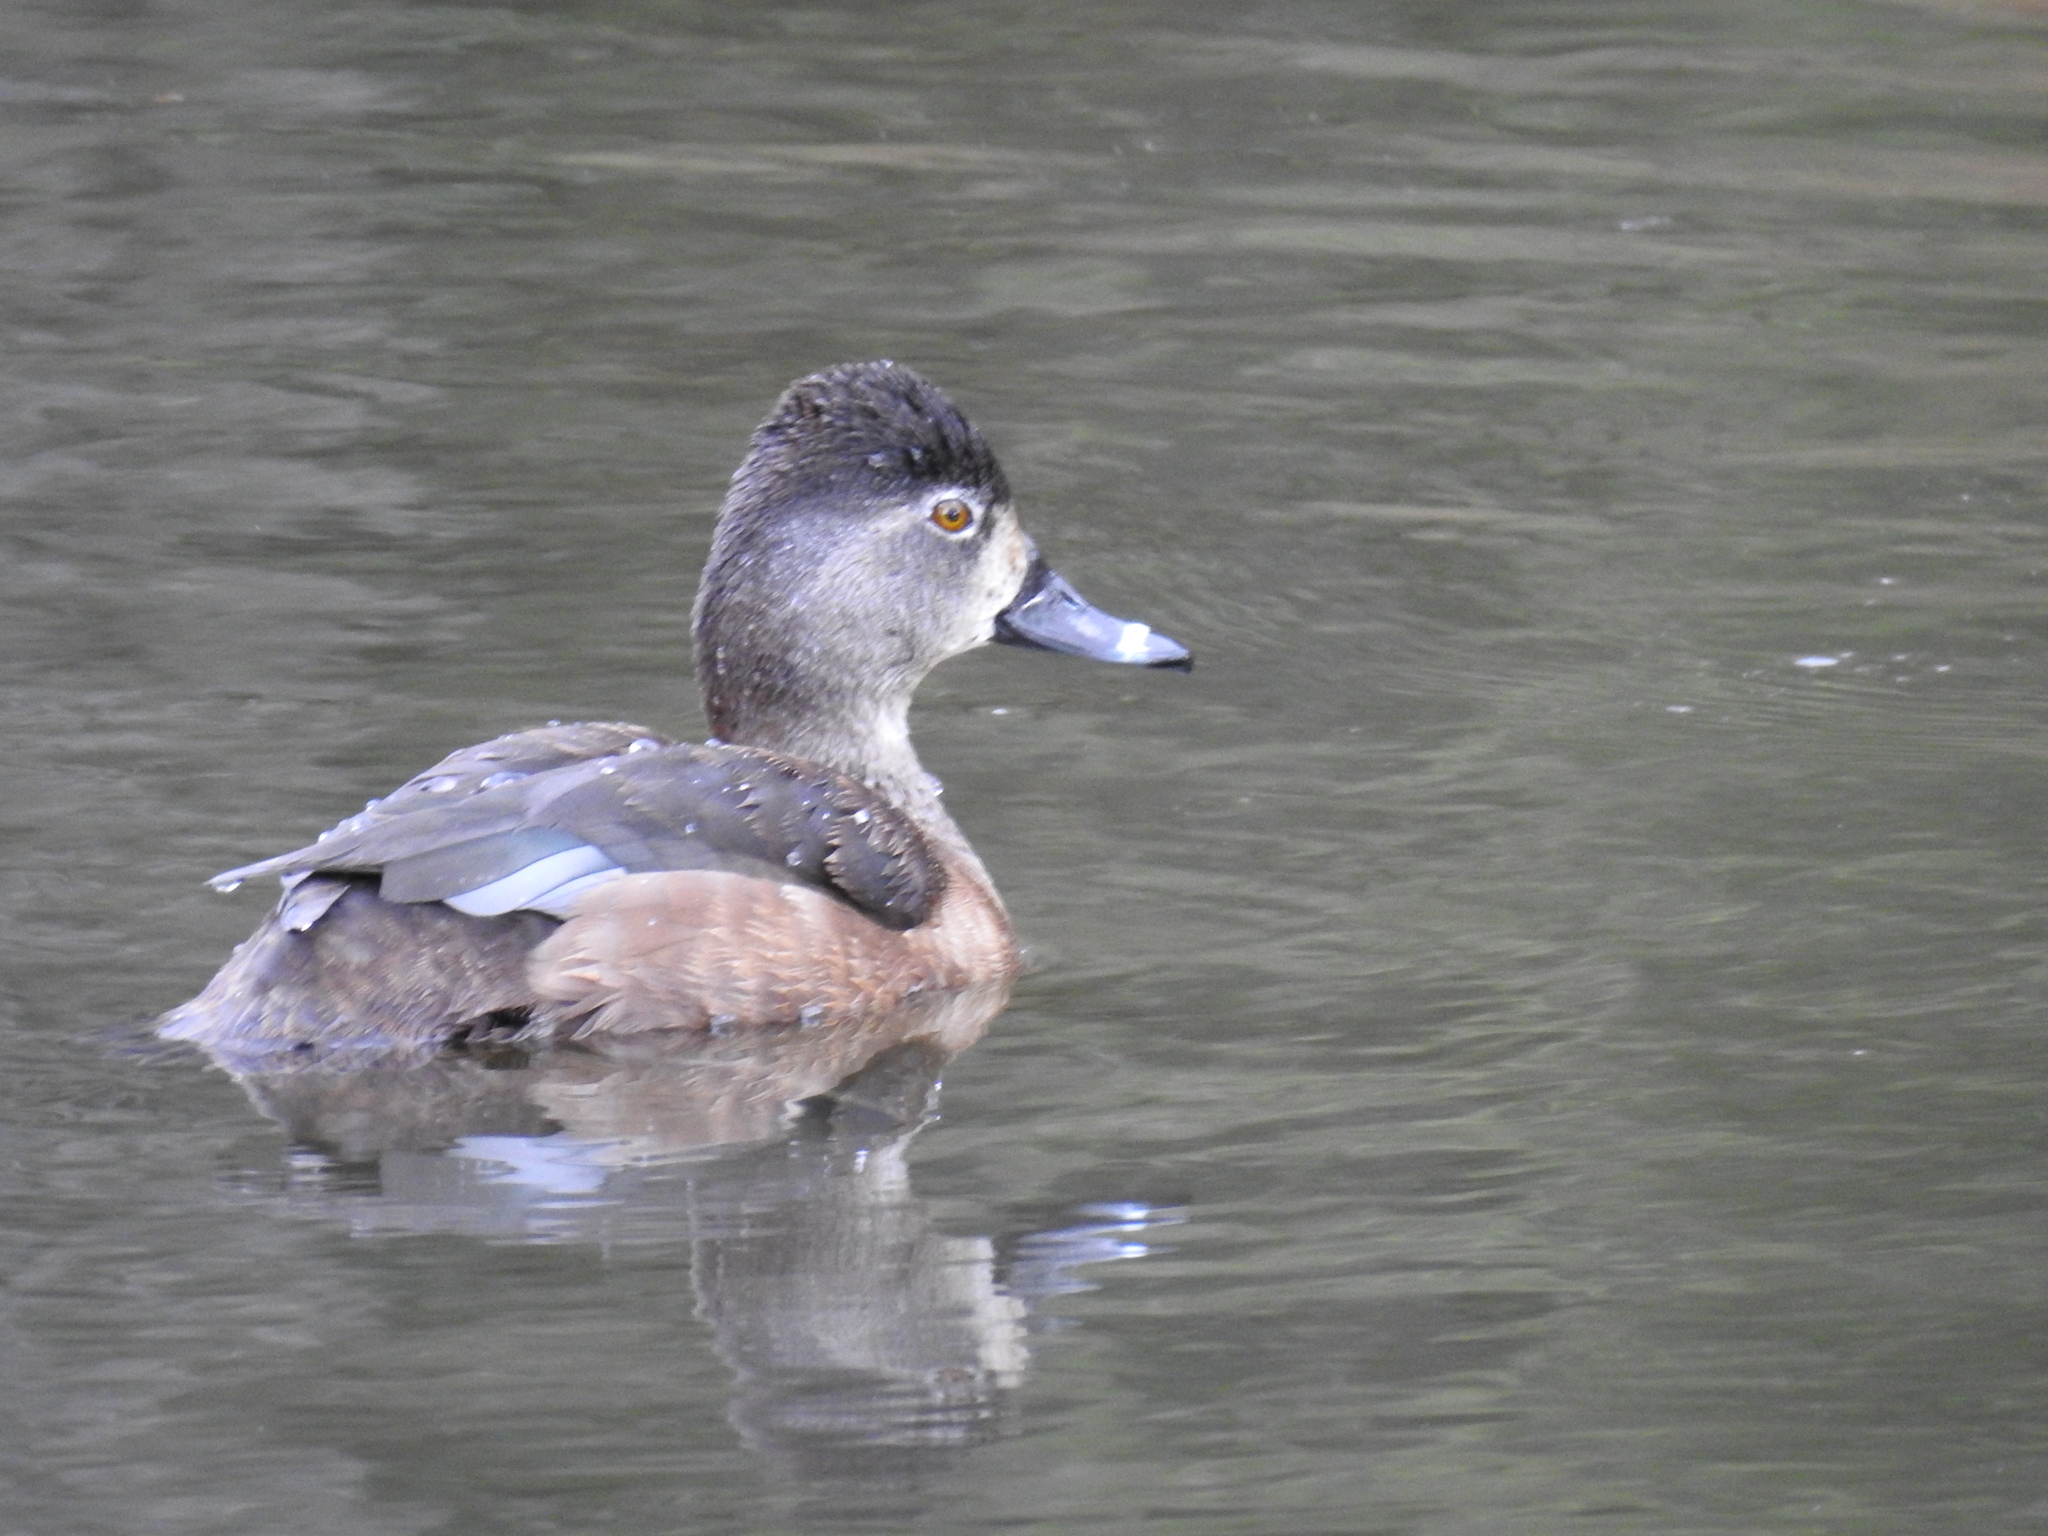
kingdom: Animalia
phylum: Chordata
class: Aves
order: Anseriformes
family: Anatidae
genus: Aythya
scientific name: Aythya collaris
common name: Ring-necked duck
